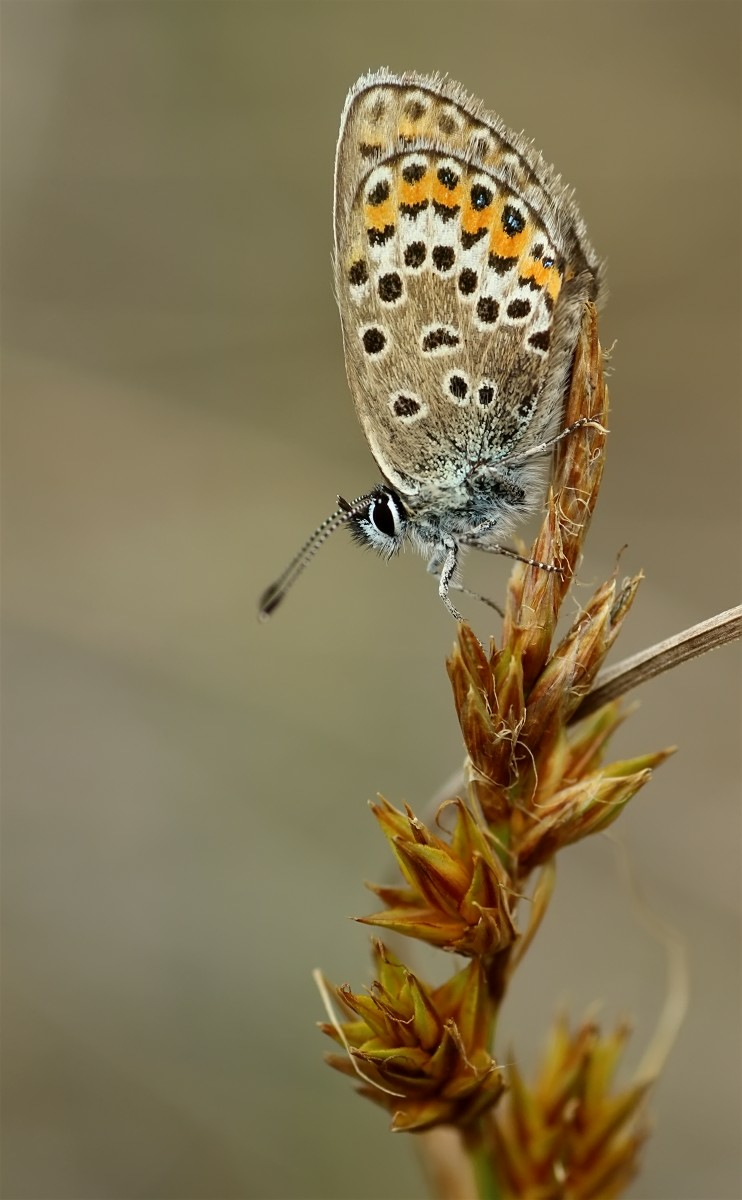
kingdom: Animalia
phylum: Arthropoda
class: Insecta
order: Lepidoptera
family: Lycaenidae
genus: Plebejus
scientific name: Plebejus argus
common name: Silver-studded blue
